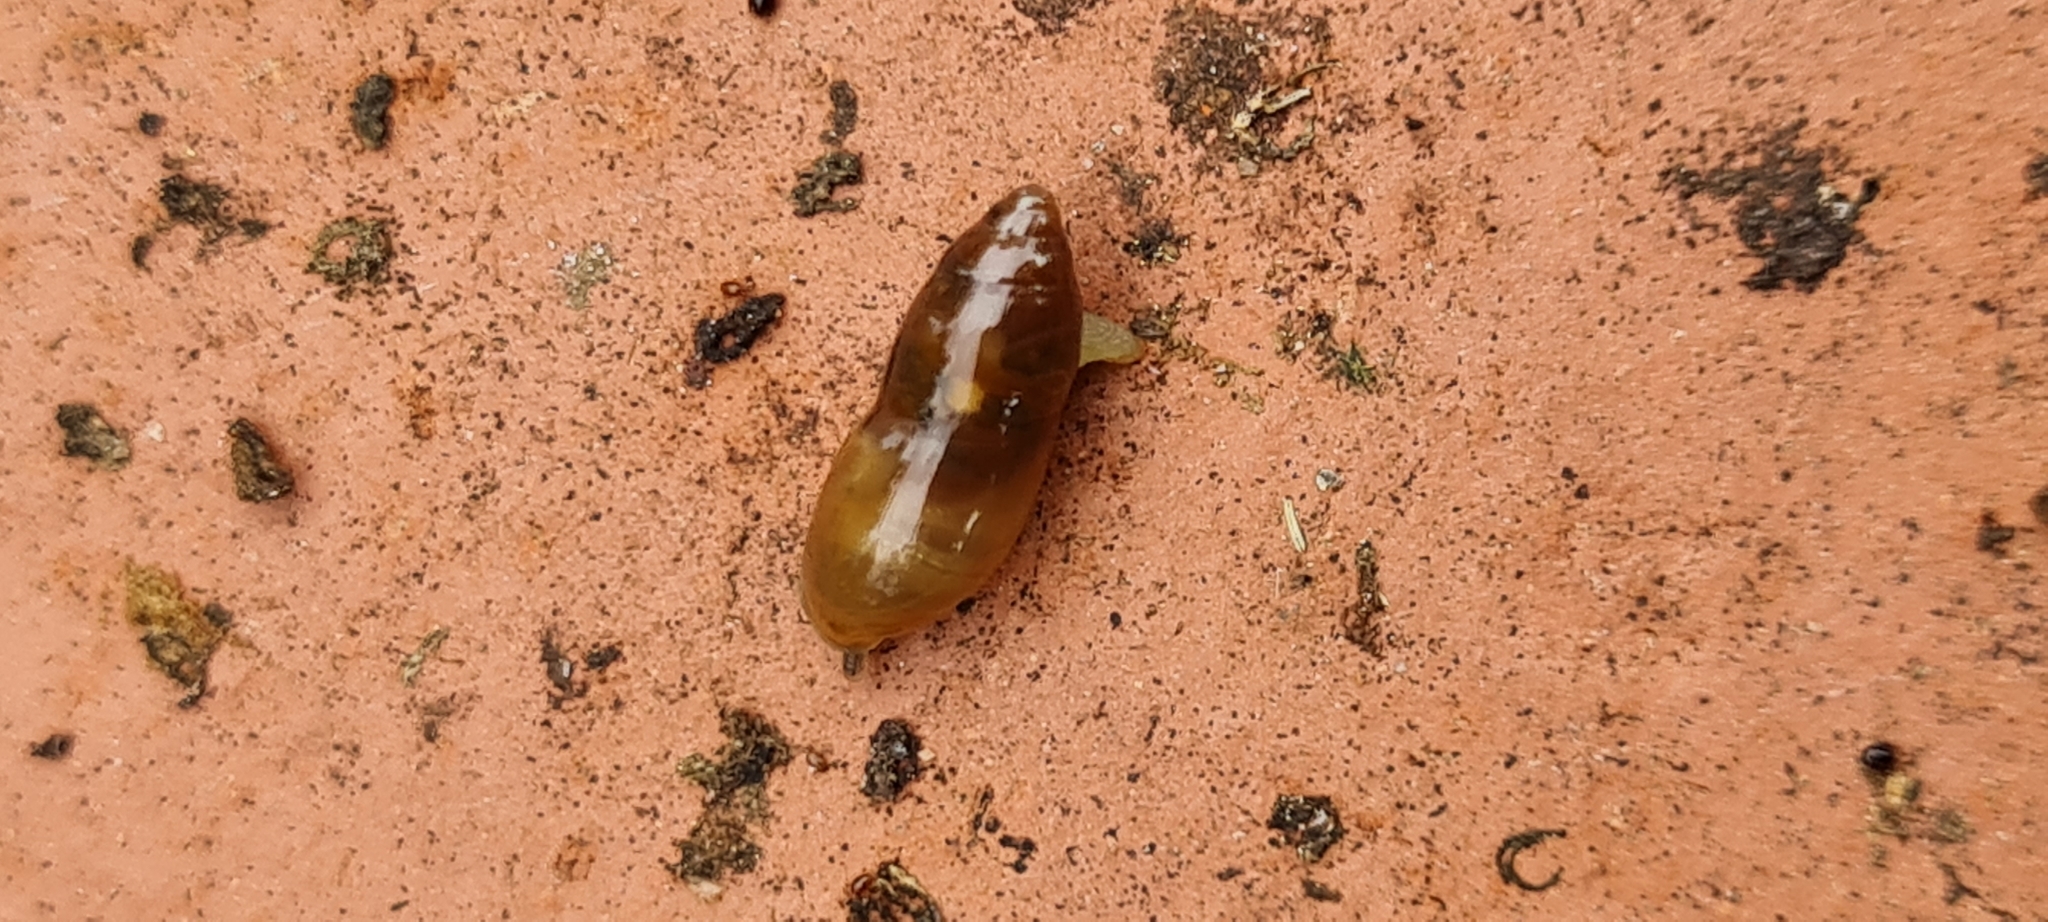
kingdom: Animalia
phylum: Mollusca
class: Gastropoda
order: Stylommatophora
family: Ferussaciidae
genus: Ferussacia
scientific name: Ferussacia folliculum
